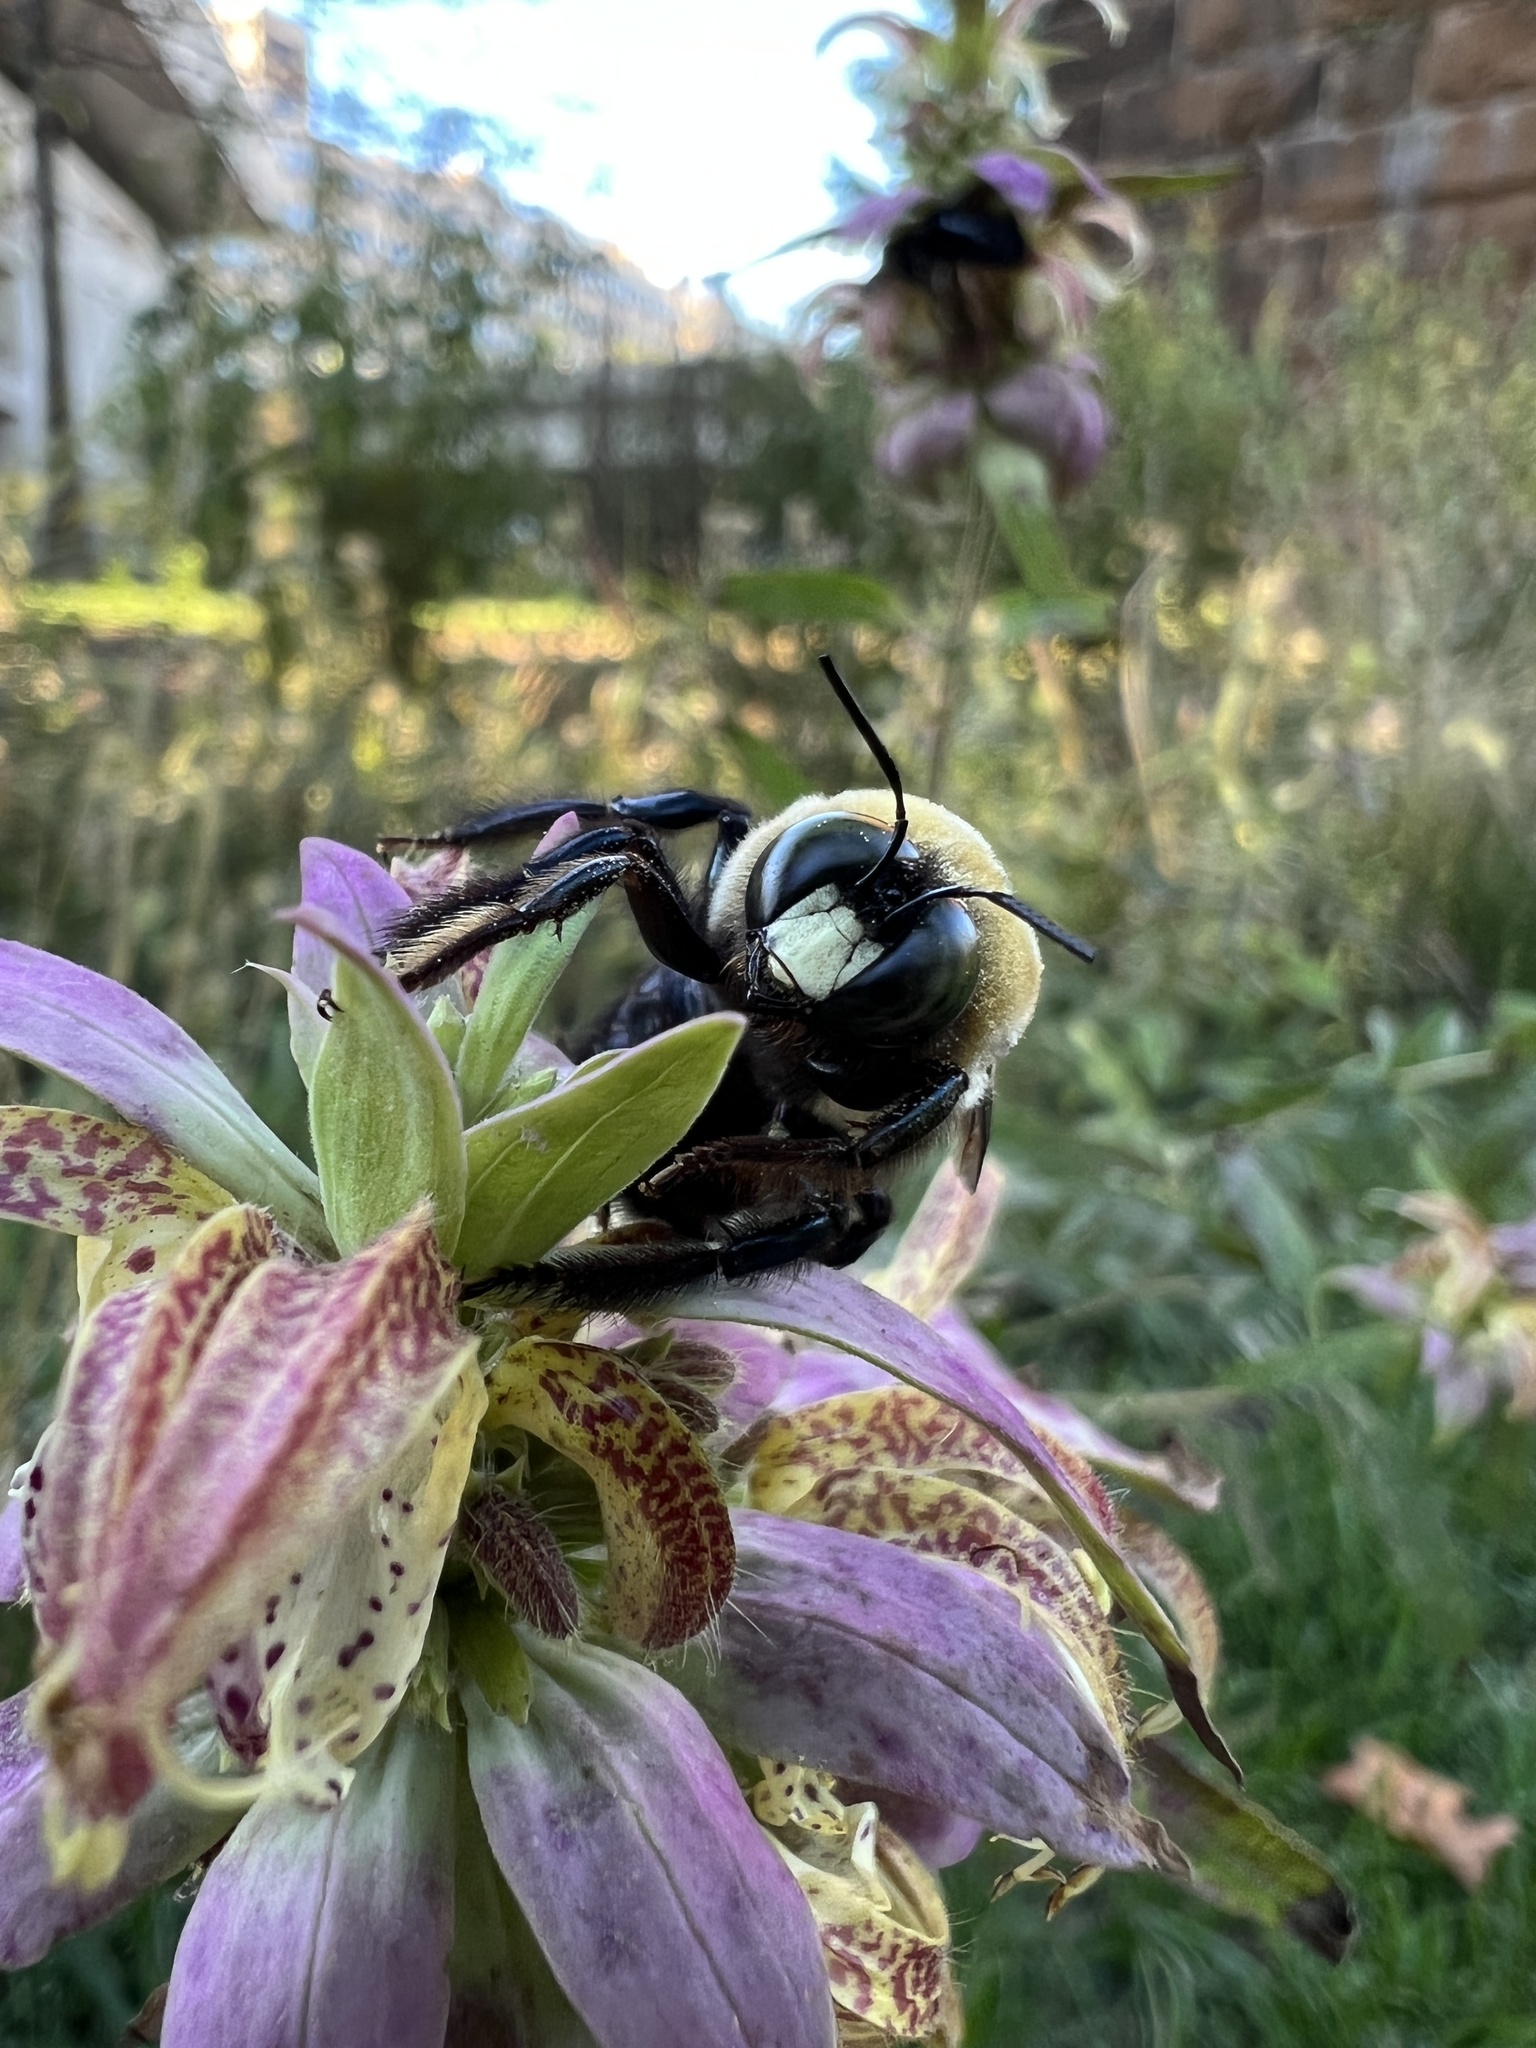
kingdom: Animalia
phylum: Arthropoda
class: Insecta
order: Hymenoptera
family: Apidae
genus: Xylocopa
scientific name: Xylocopa virginica
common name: Carpenter bee
